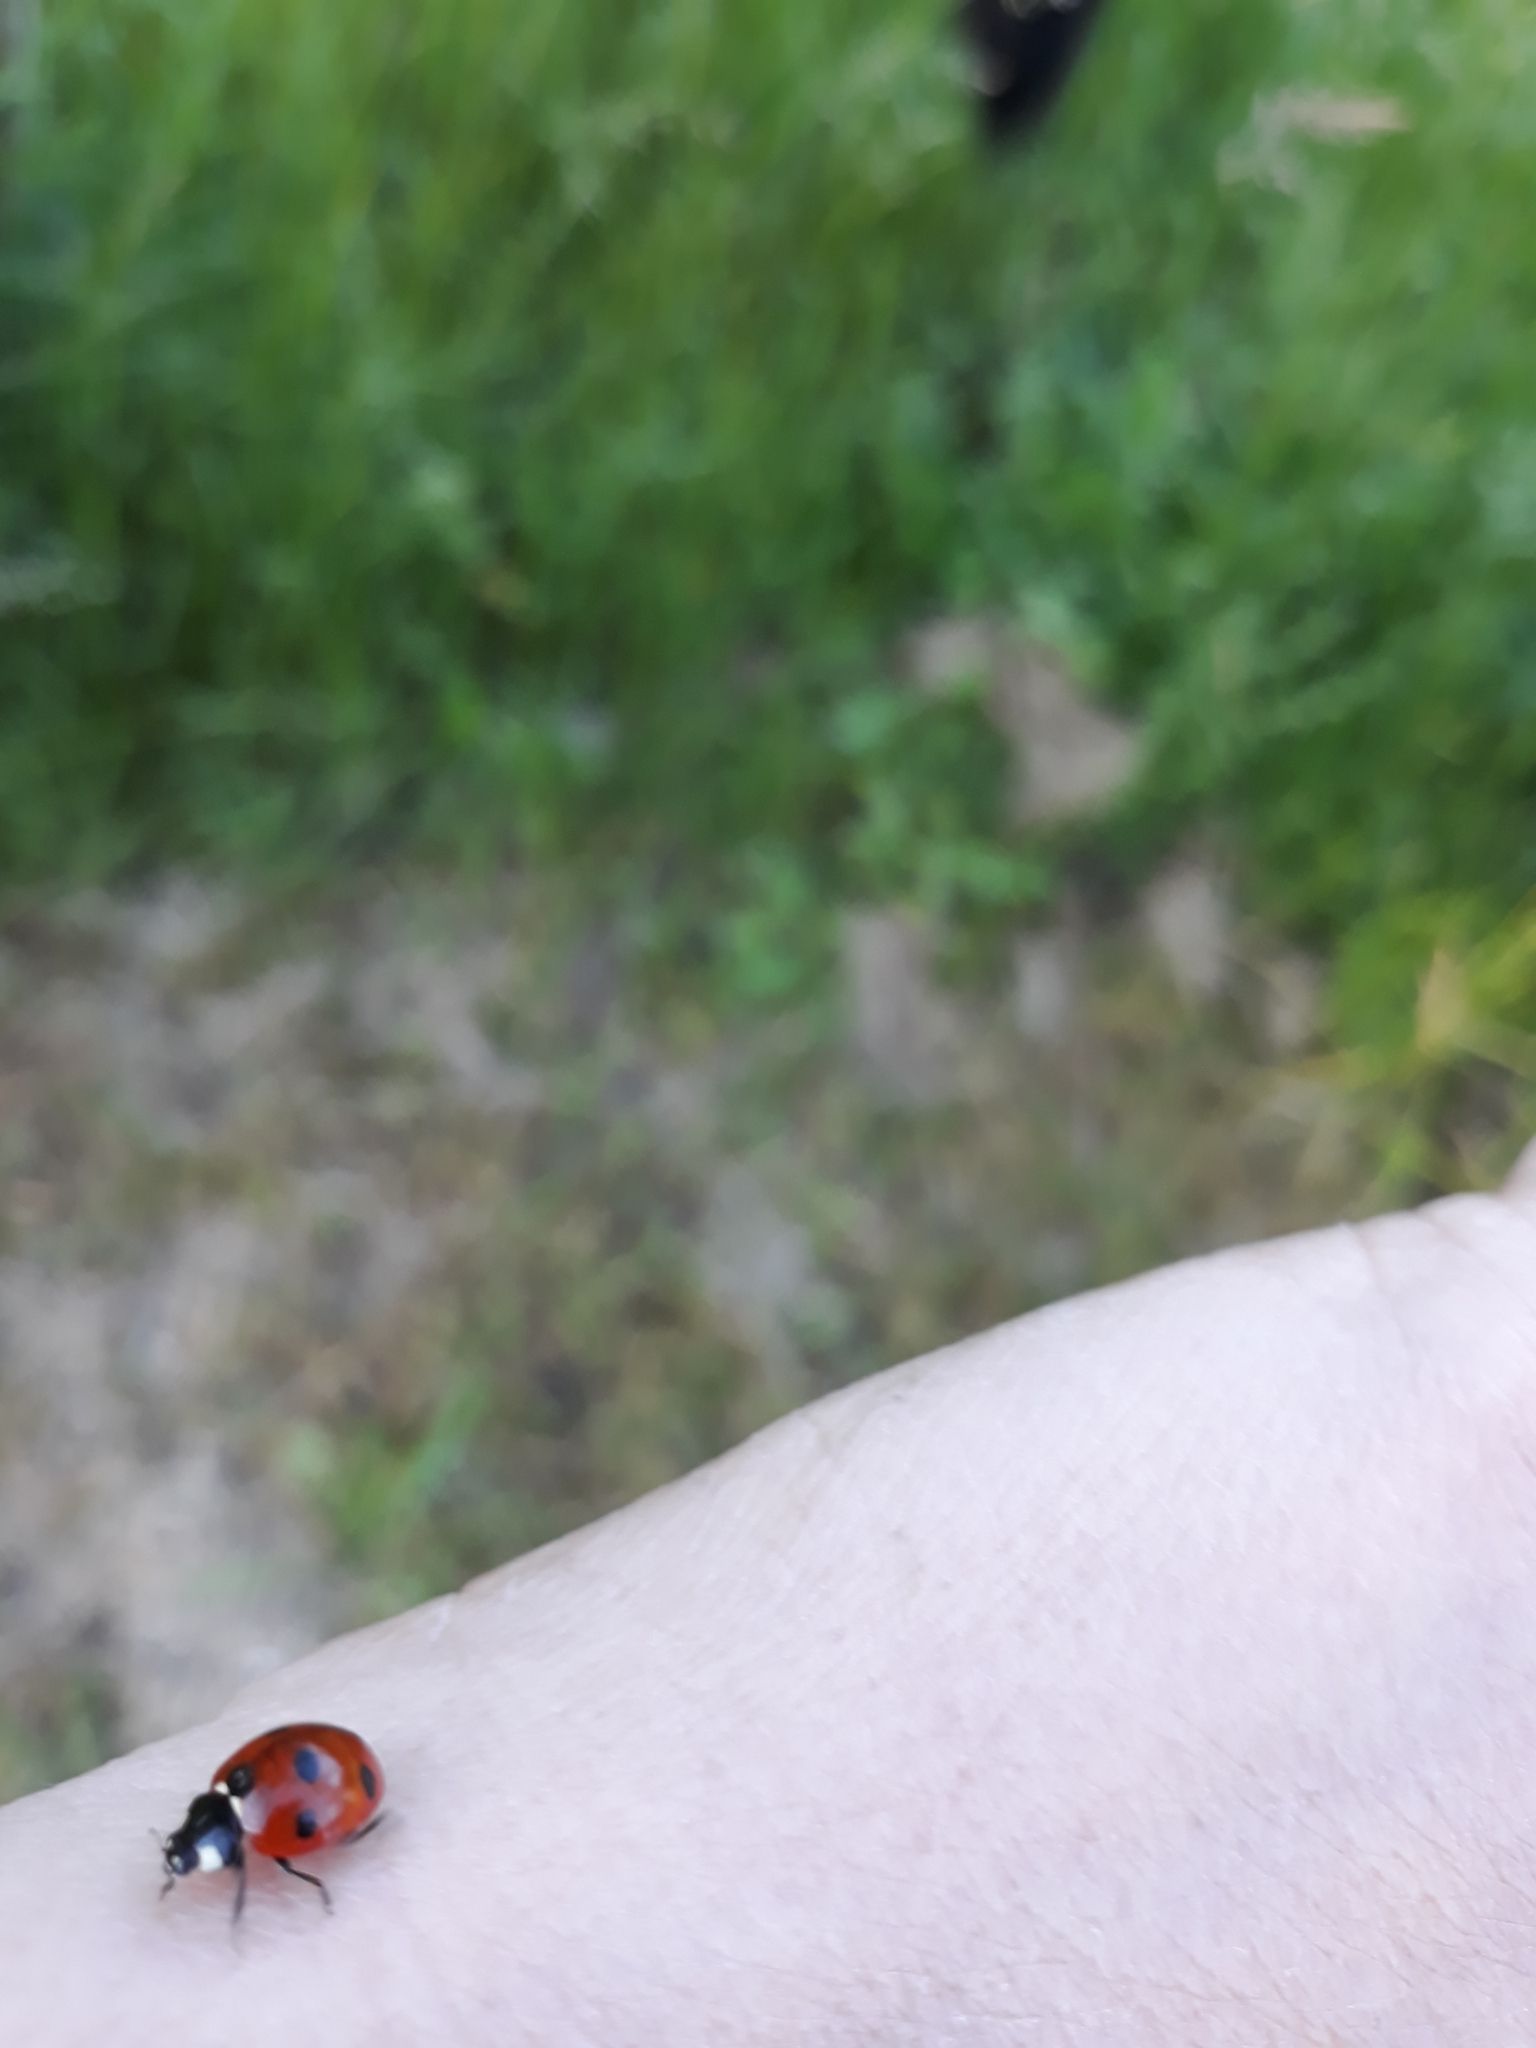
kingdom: Animalia
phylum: Arthropoda
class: Insecta
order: Coleoptera
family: Coccinellidae
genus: Coccinella
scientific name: Coccinella septempunctata
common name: Sevenspotted lady beetle
